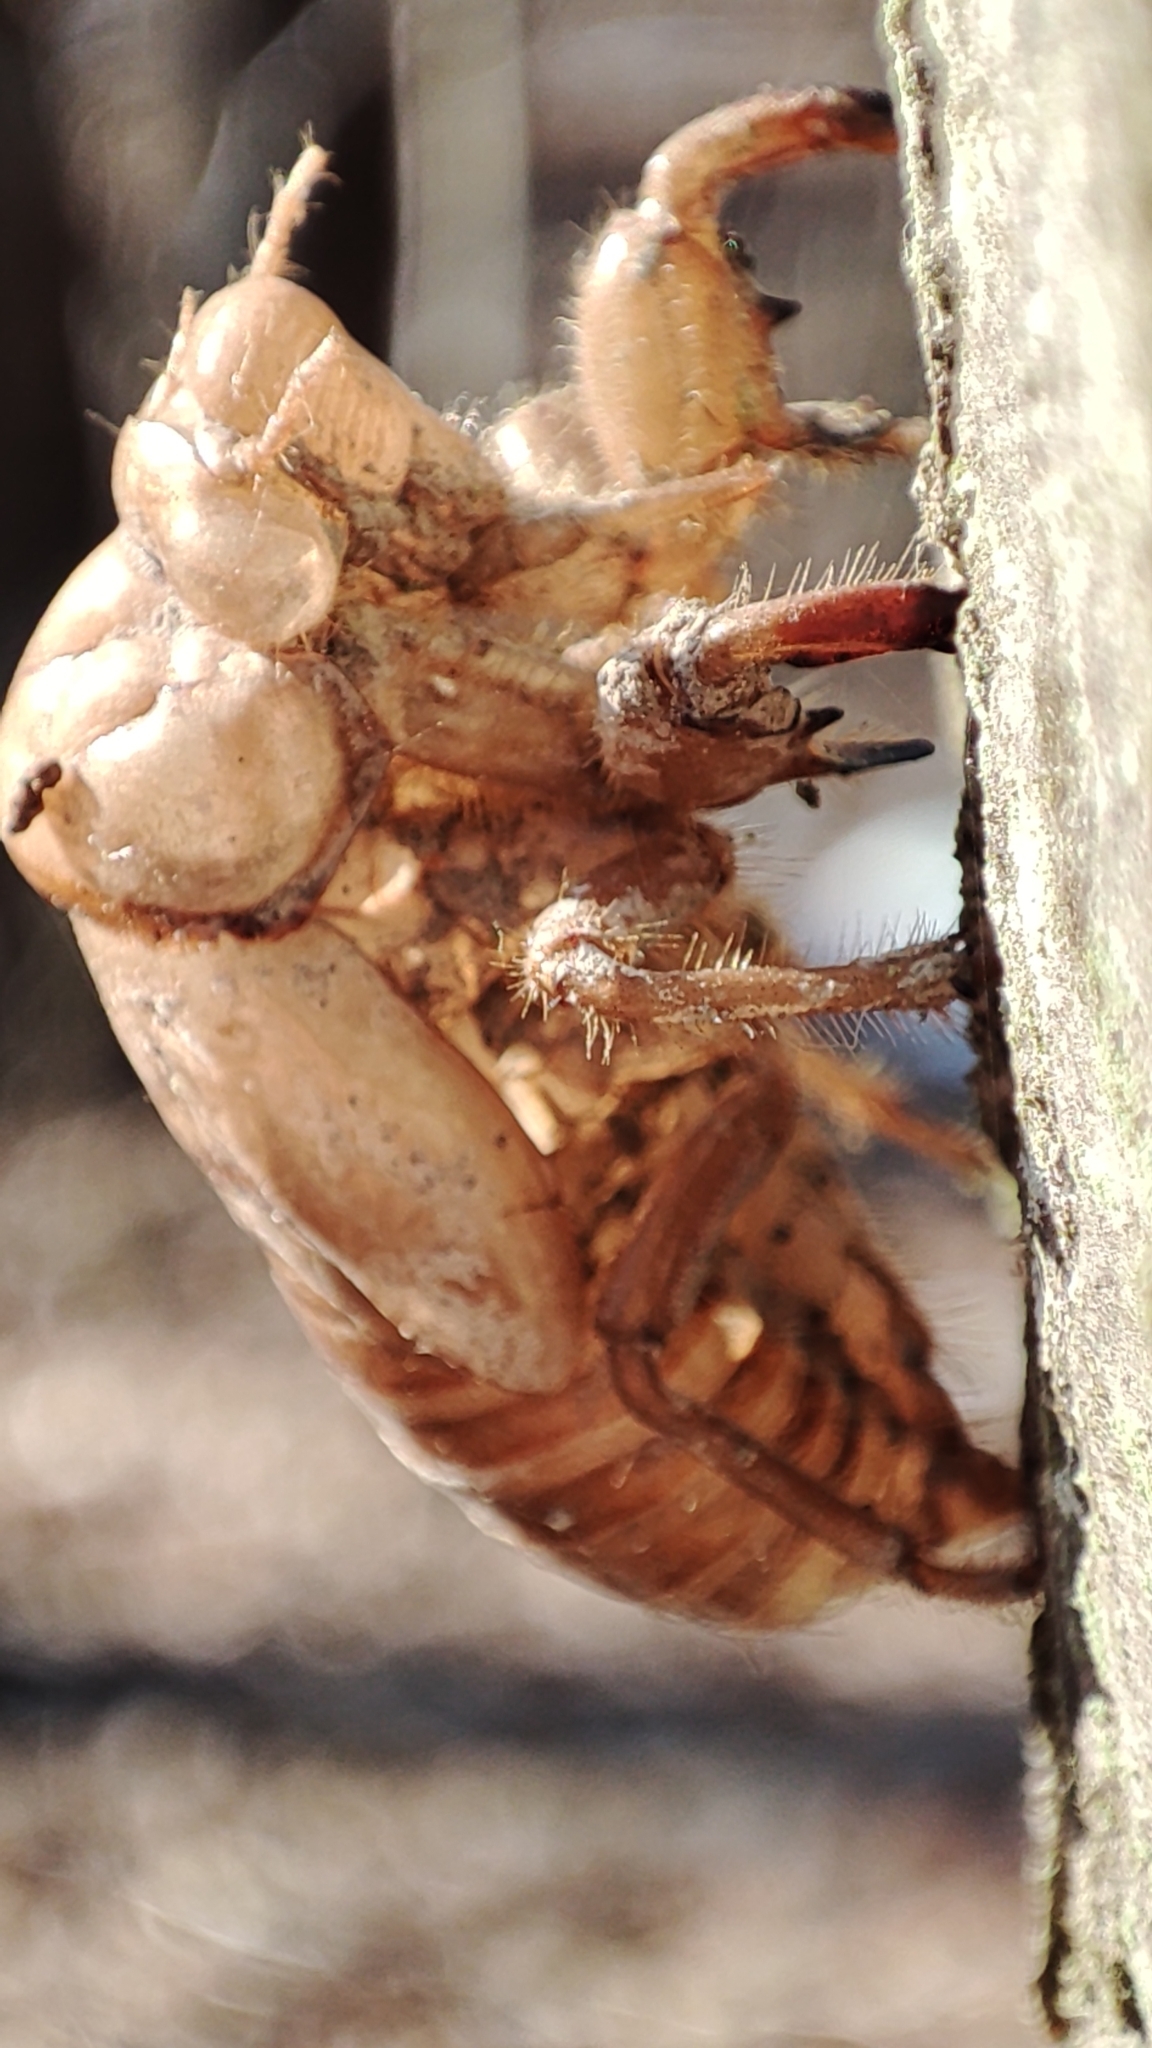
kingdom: Animalia
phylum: Arthropoda
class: Insecta
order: Hemiptera
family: Cicadidae
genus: Lyristes
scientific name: Lyristes plebejus
